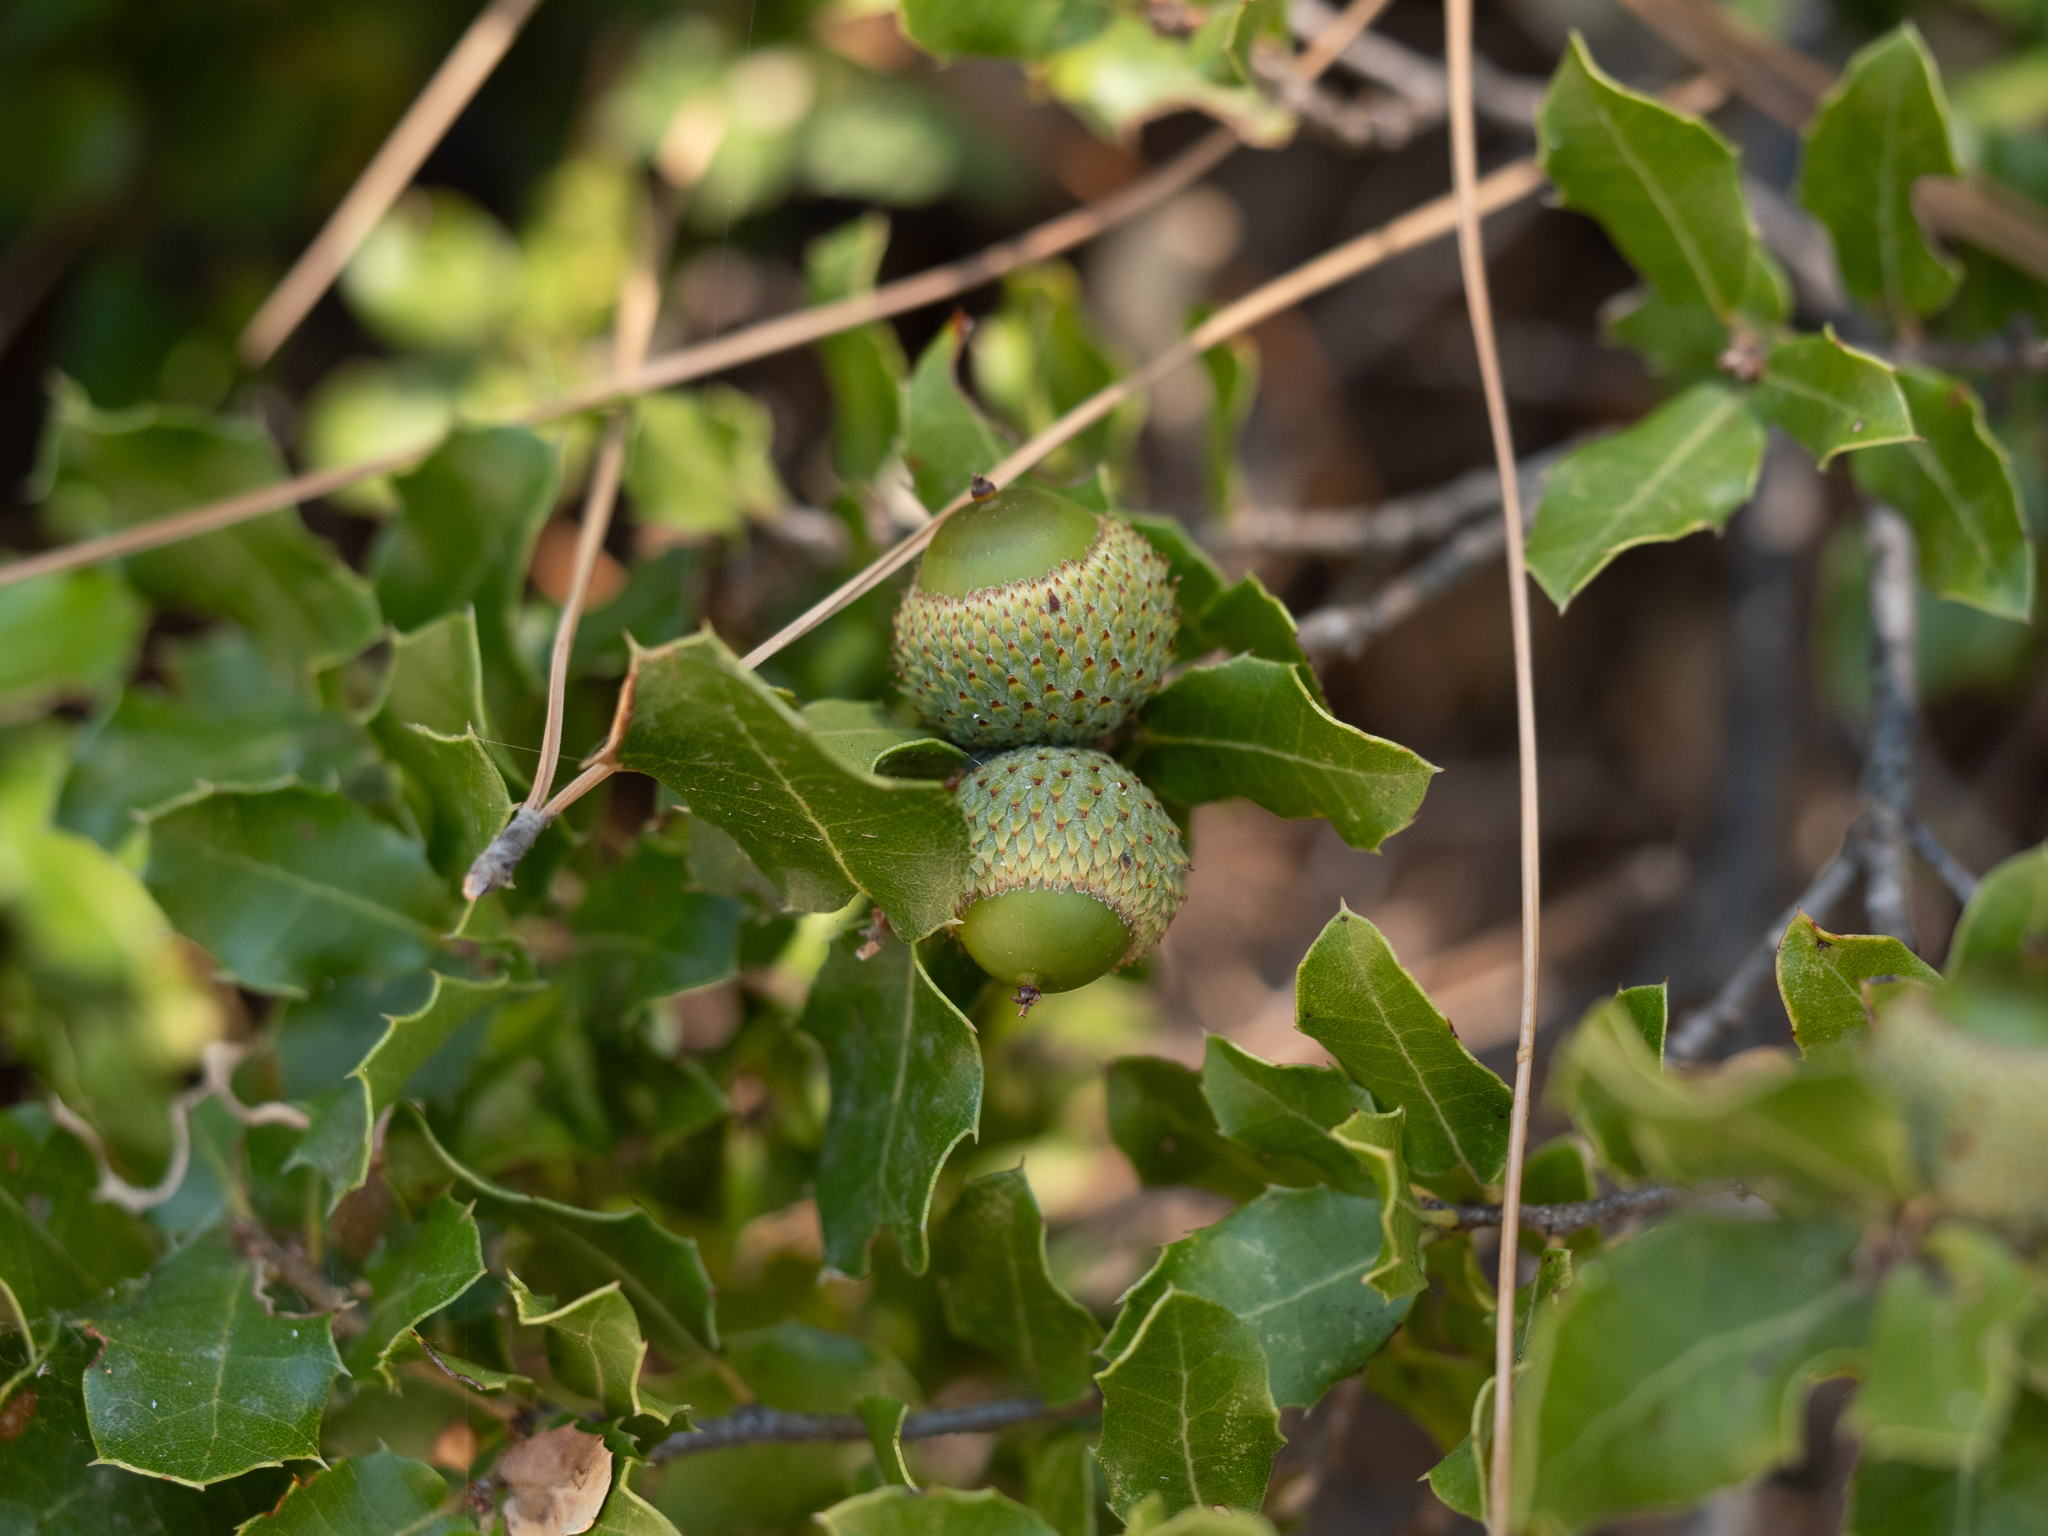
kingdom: Plantae
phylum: Tracheophyta
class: Magnoliopsida
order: Fagales
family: Fagaceae
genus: Quercus
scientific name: Quercus coccifera
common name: Kermes oak
